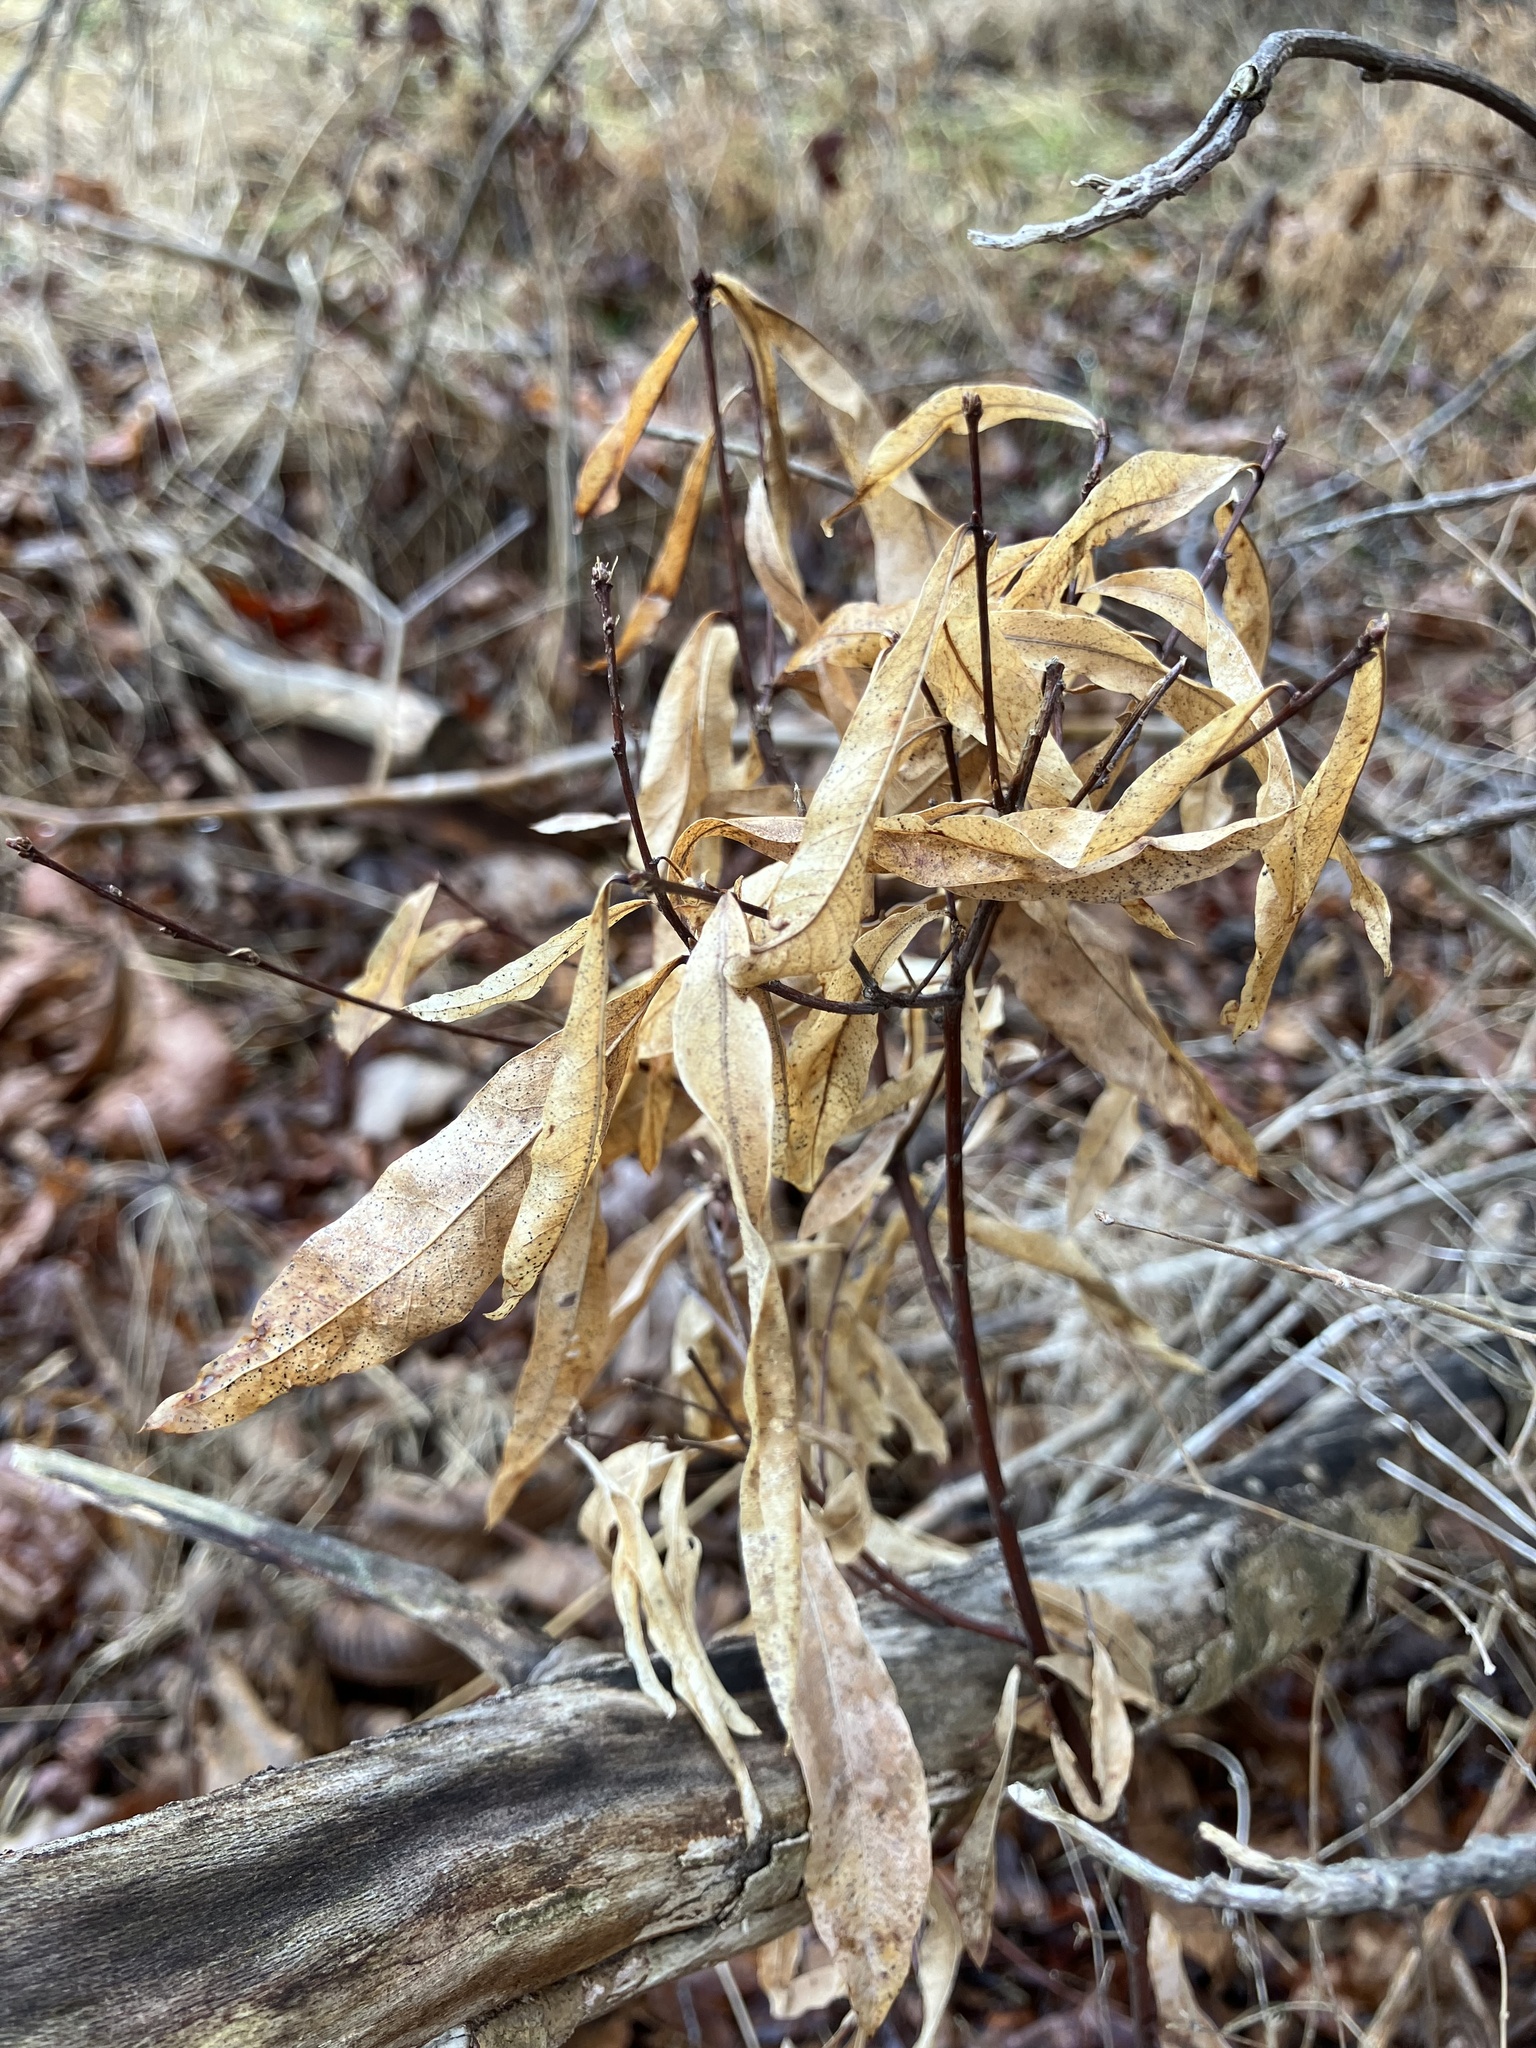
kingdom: Plantae
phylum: Tracheophyta
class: Magnoliopsida
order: Fagales
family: Fagaceae
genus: Quercus
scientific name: Quercus phellos
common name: Willow oak
